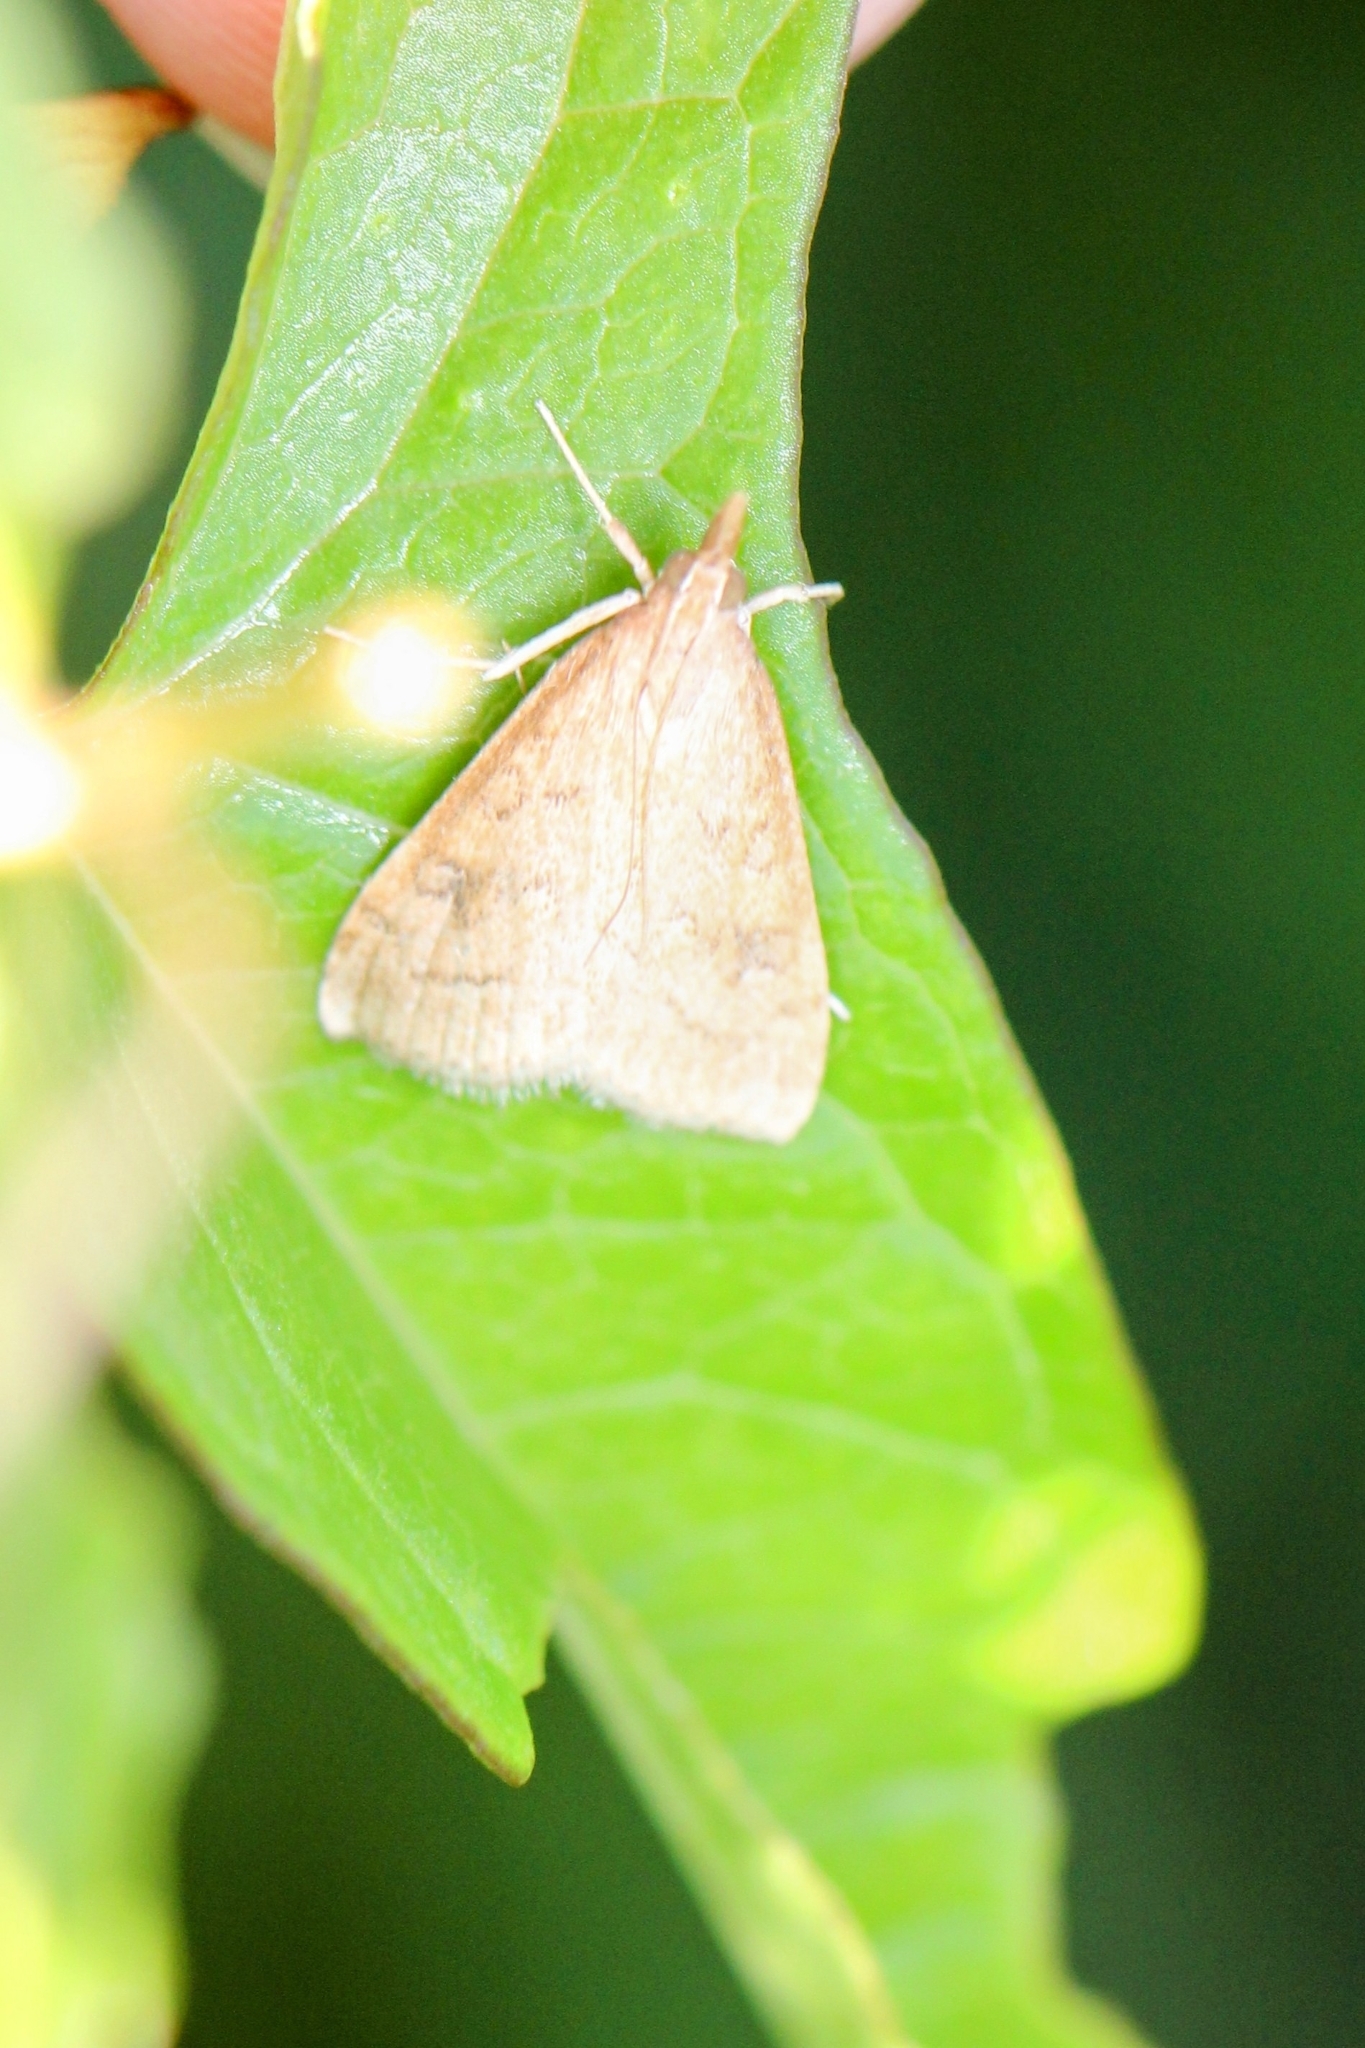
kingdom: Animalia
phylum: Arthropoda
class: Insecta
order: Lepidoptera
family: Crambidae
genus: Udea
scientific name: Udea rubigalis
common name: Celery leaftier moth
